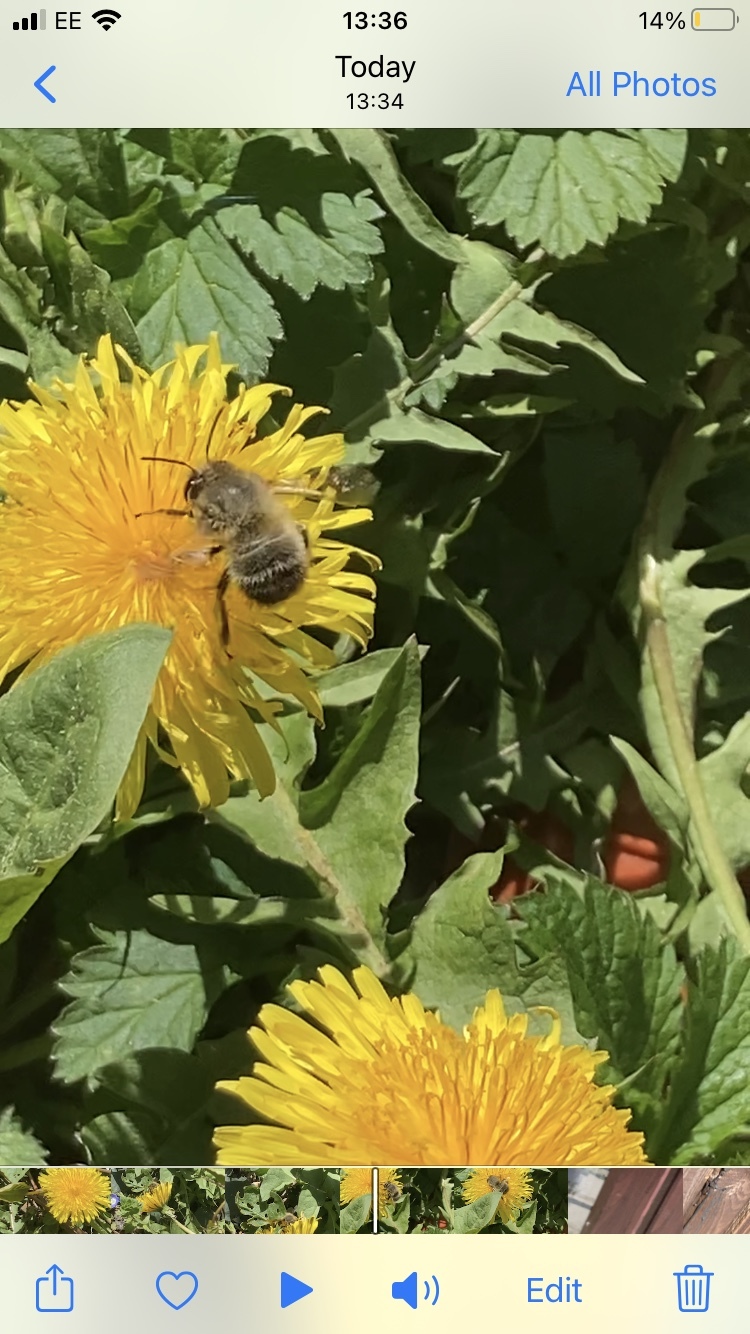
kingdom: Animalia
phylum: Arthropoda
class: Insecta
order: Hymenoptera
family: Apidae
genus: Anthophora
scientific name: Anthophora plumipes
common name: Hairy-footed flower bee
